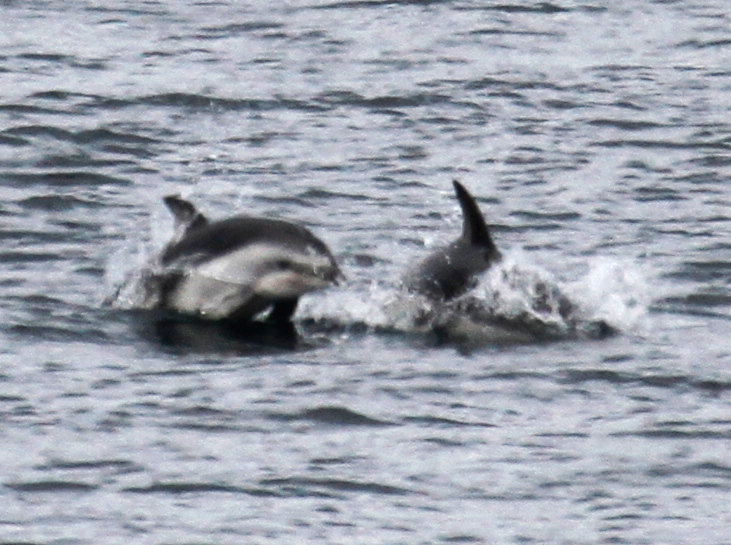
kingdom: Animalia
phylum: Chordata
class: Mammalia
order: Cetacea
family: Delphinidae
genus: Lagenorhynchus
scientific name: Lagenorhynchus obscurus
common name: Dusky dolphin
